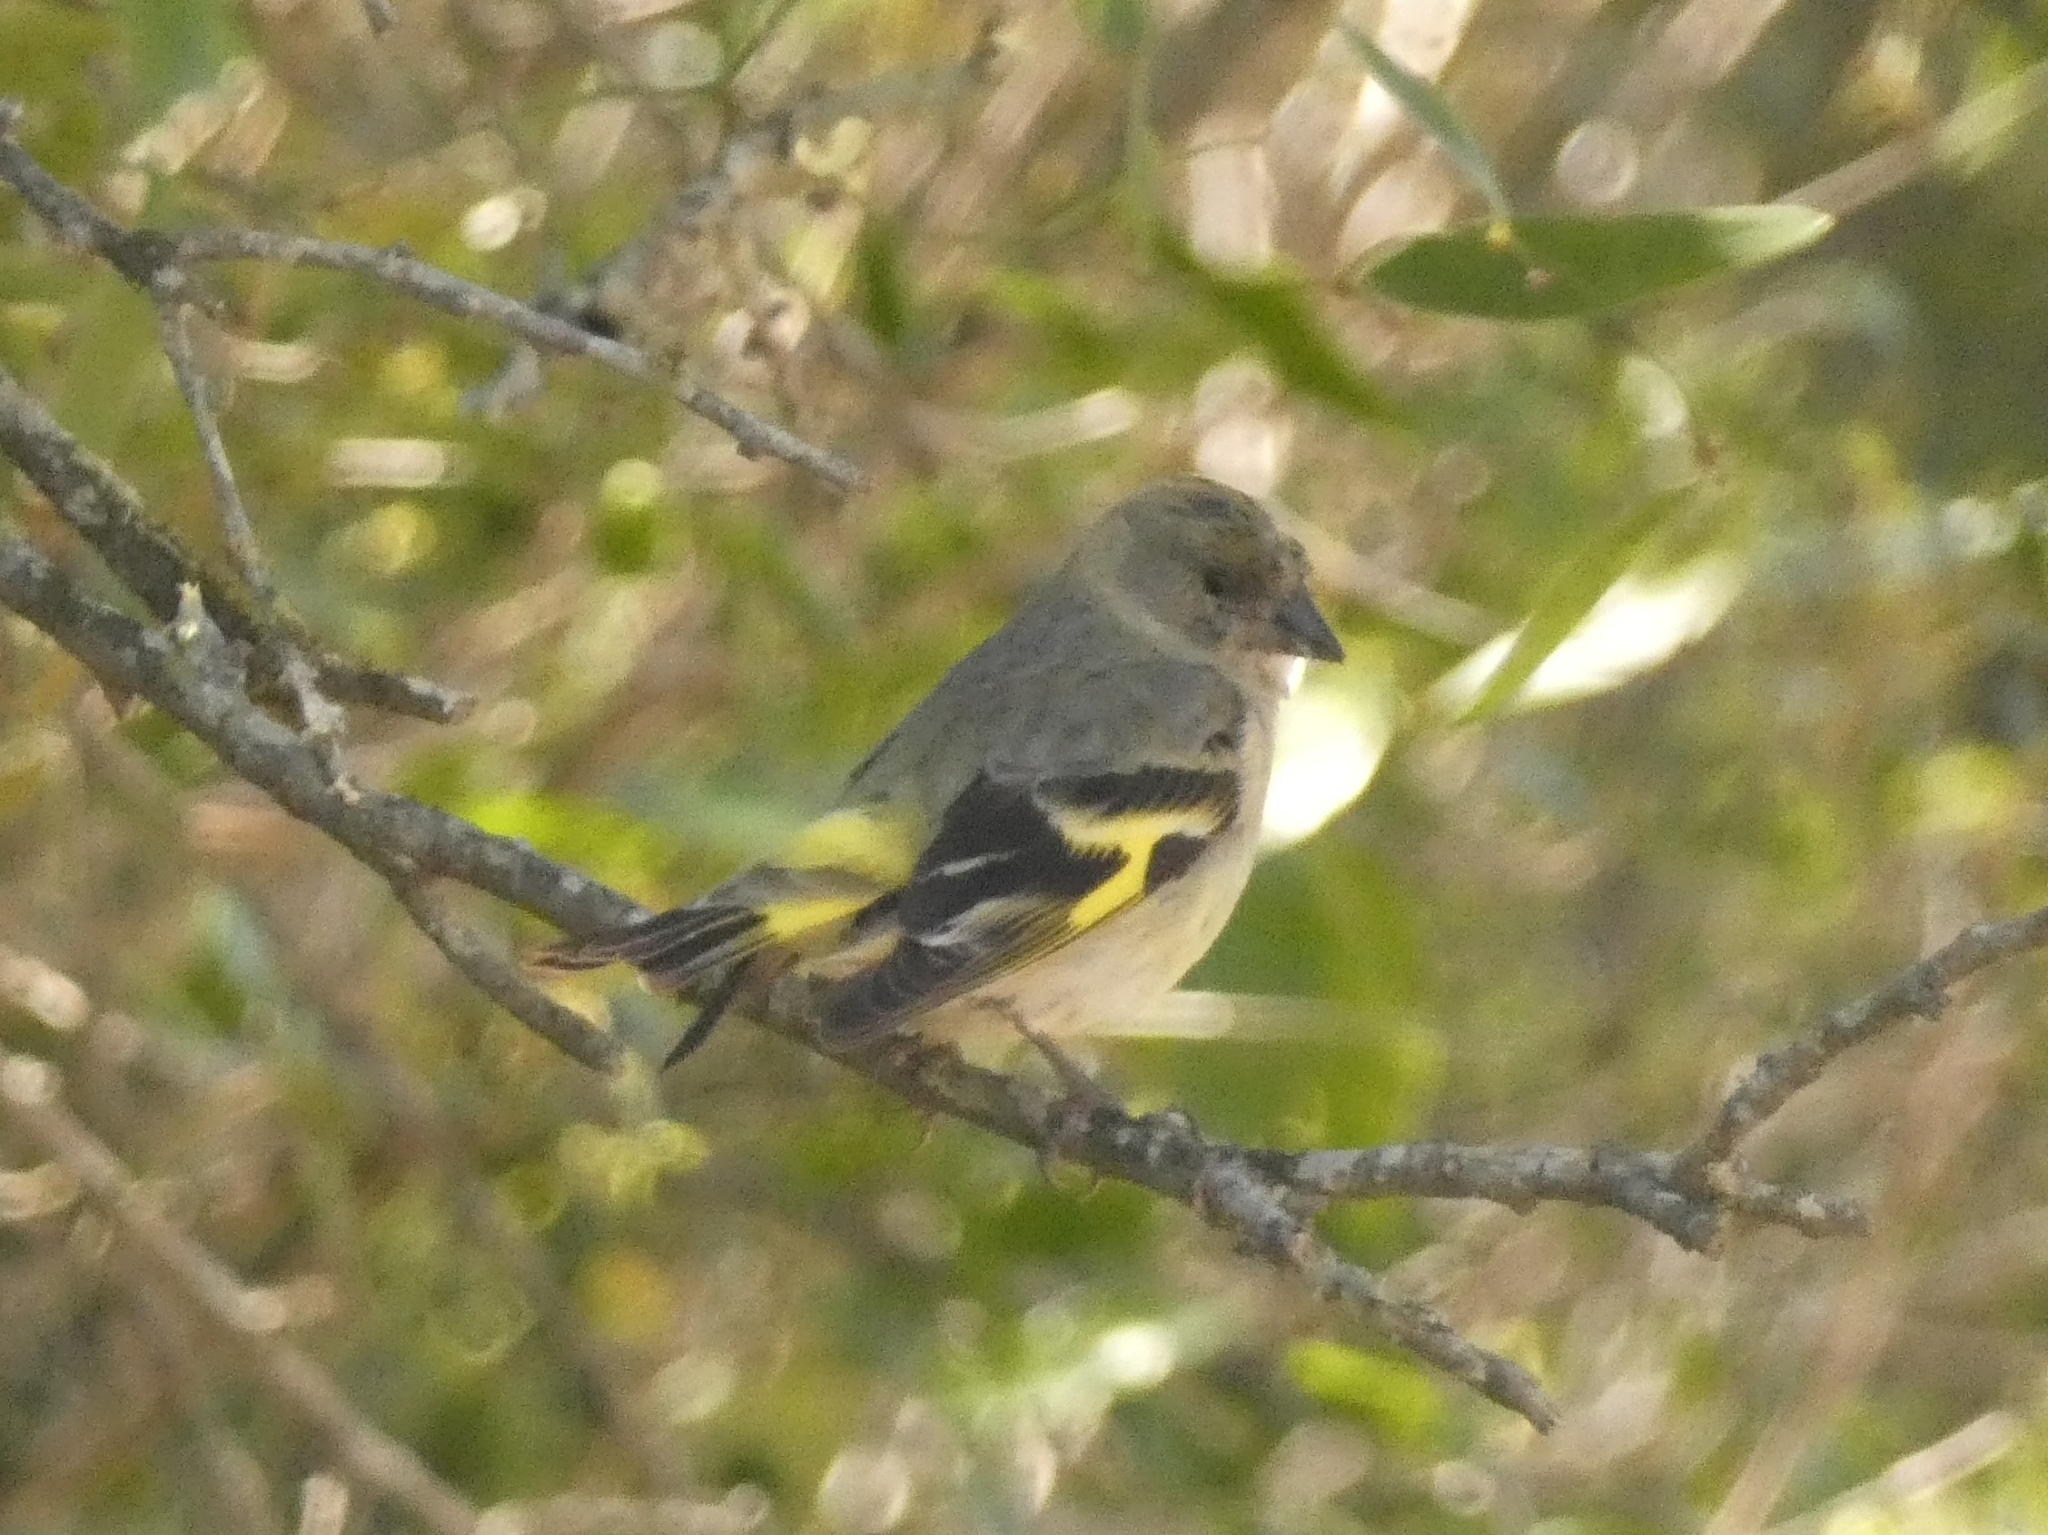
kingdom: Animalia
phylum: Chordata
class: Aves
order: Passeriformes
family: Fringillidae
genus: Spinus
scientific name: Spinus magellanicus
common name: Hooded siskin
